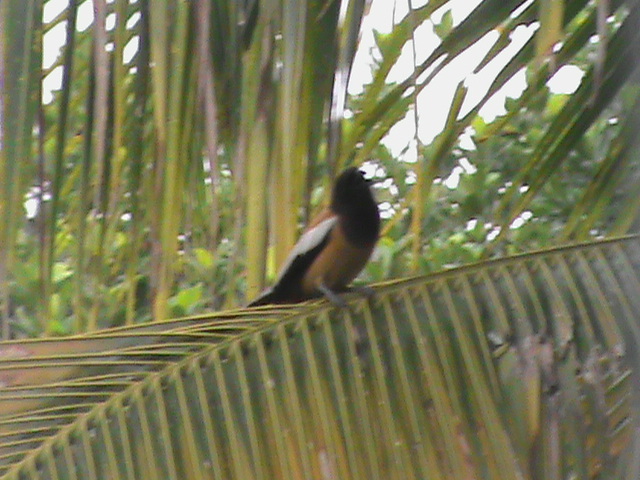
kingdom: Animalia
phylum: Chordata
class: Aves
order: Passeriformes
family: Corvidae
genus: Dendrocitta
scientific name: Dendrocitta vagabunda
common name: Rufous treepie
